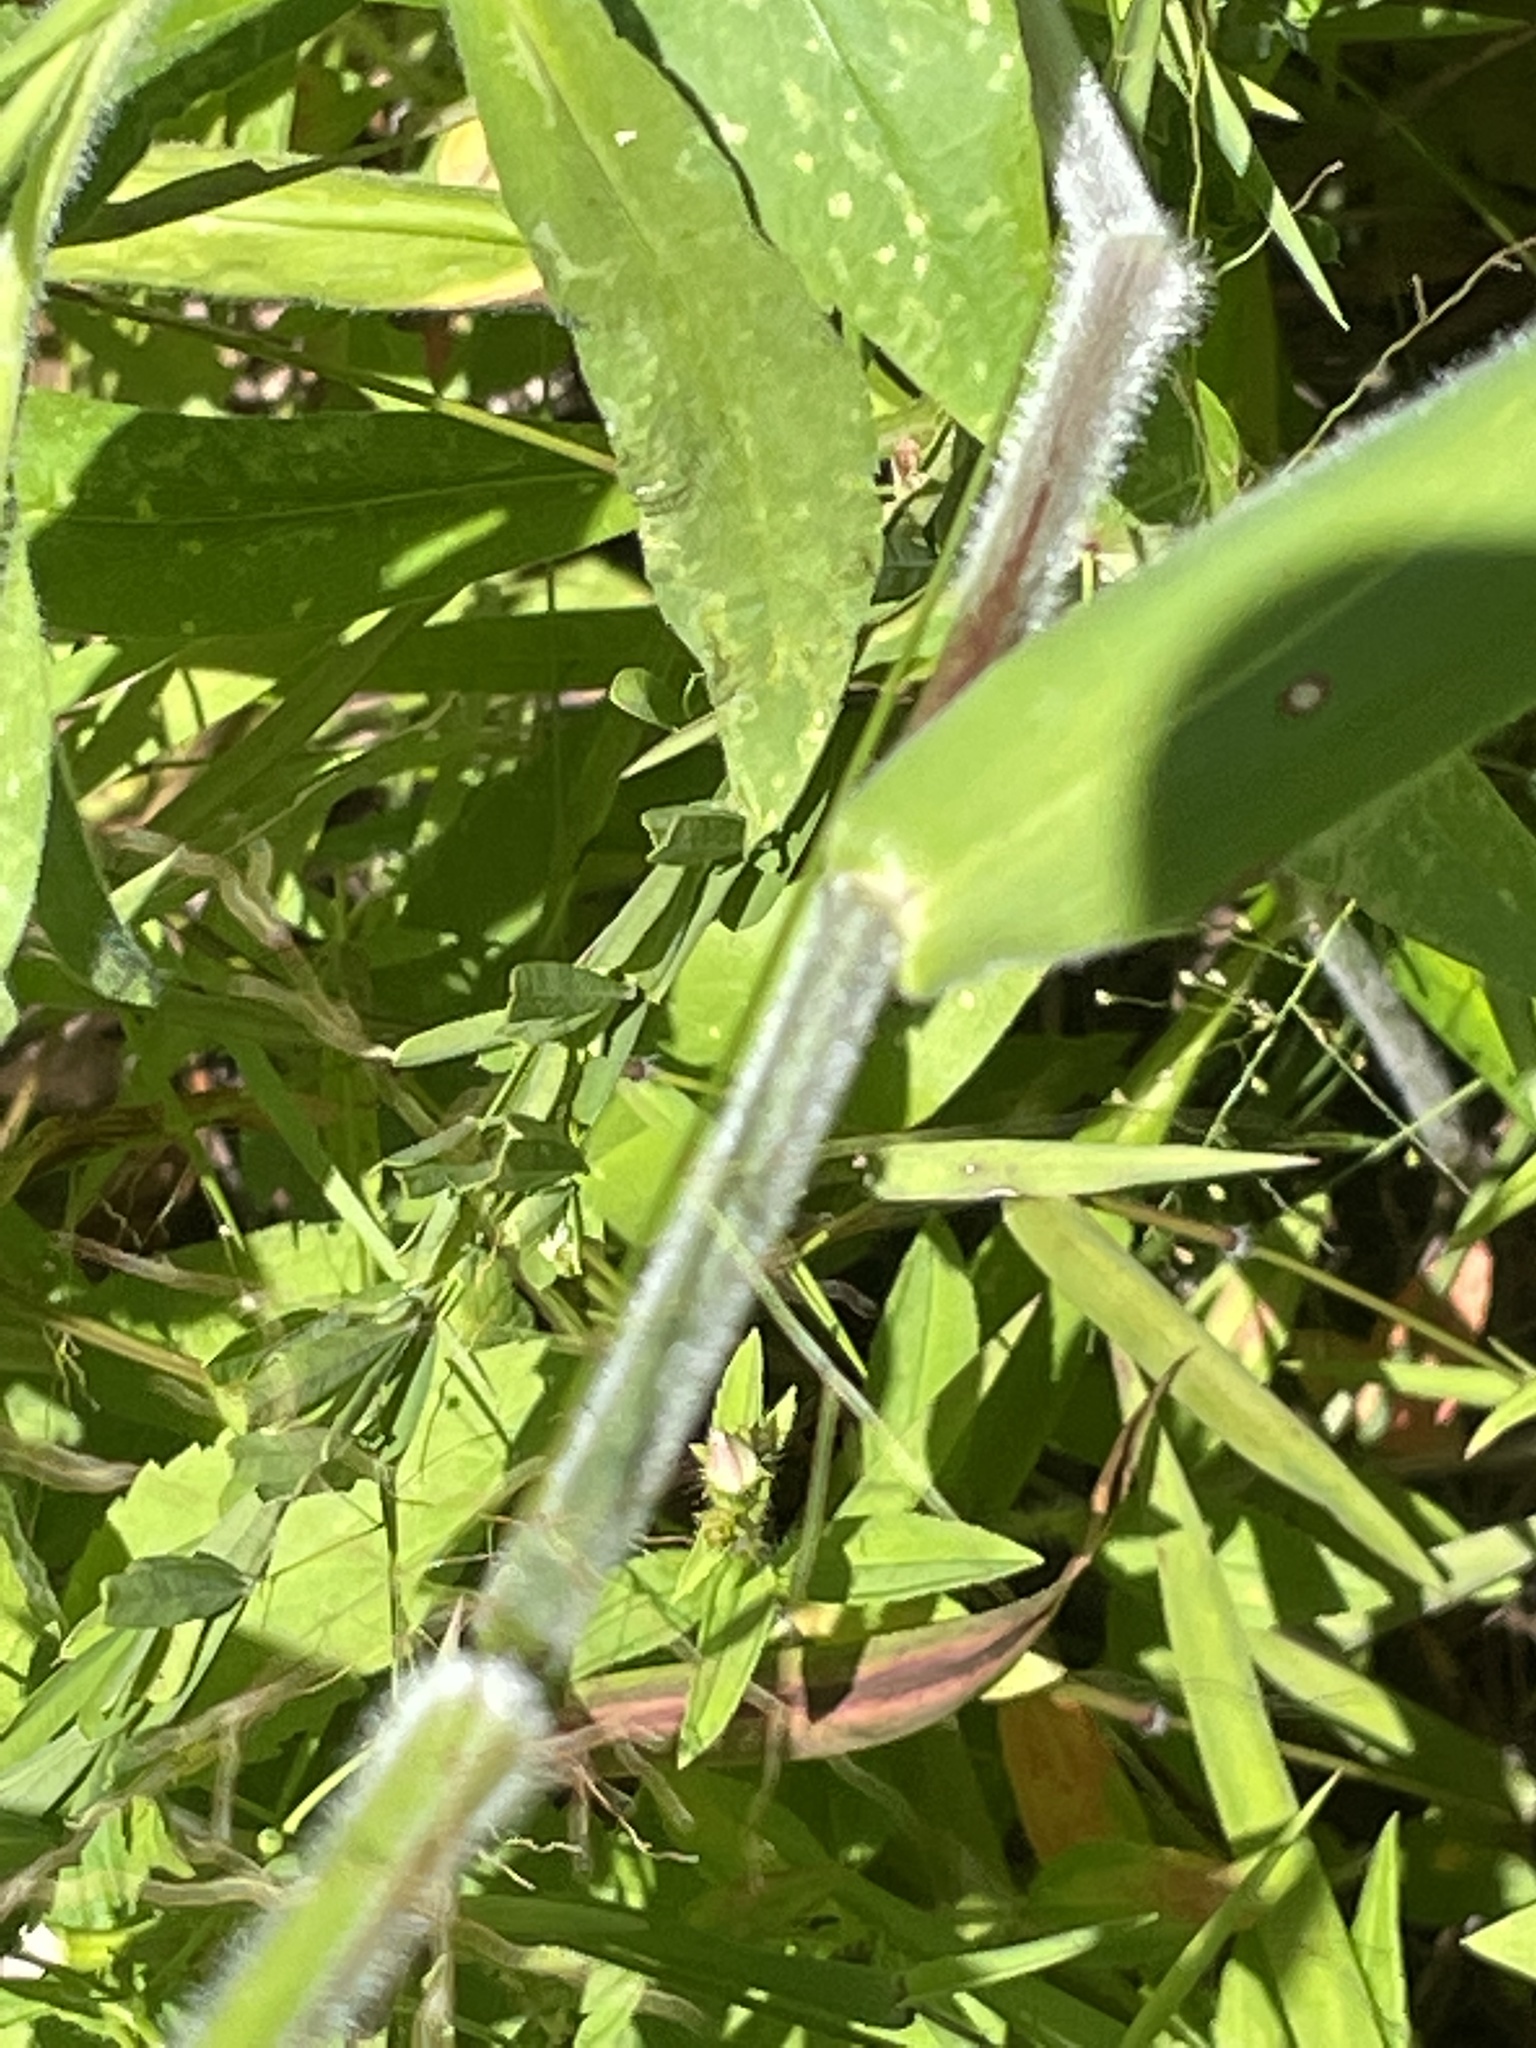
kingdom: Plantae
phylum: Tracheophyta
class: Liliopsida
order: Poales
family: Poaceae
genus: Dichanthelium
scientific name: Dichanthelium scabriusculum
